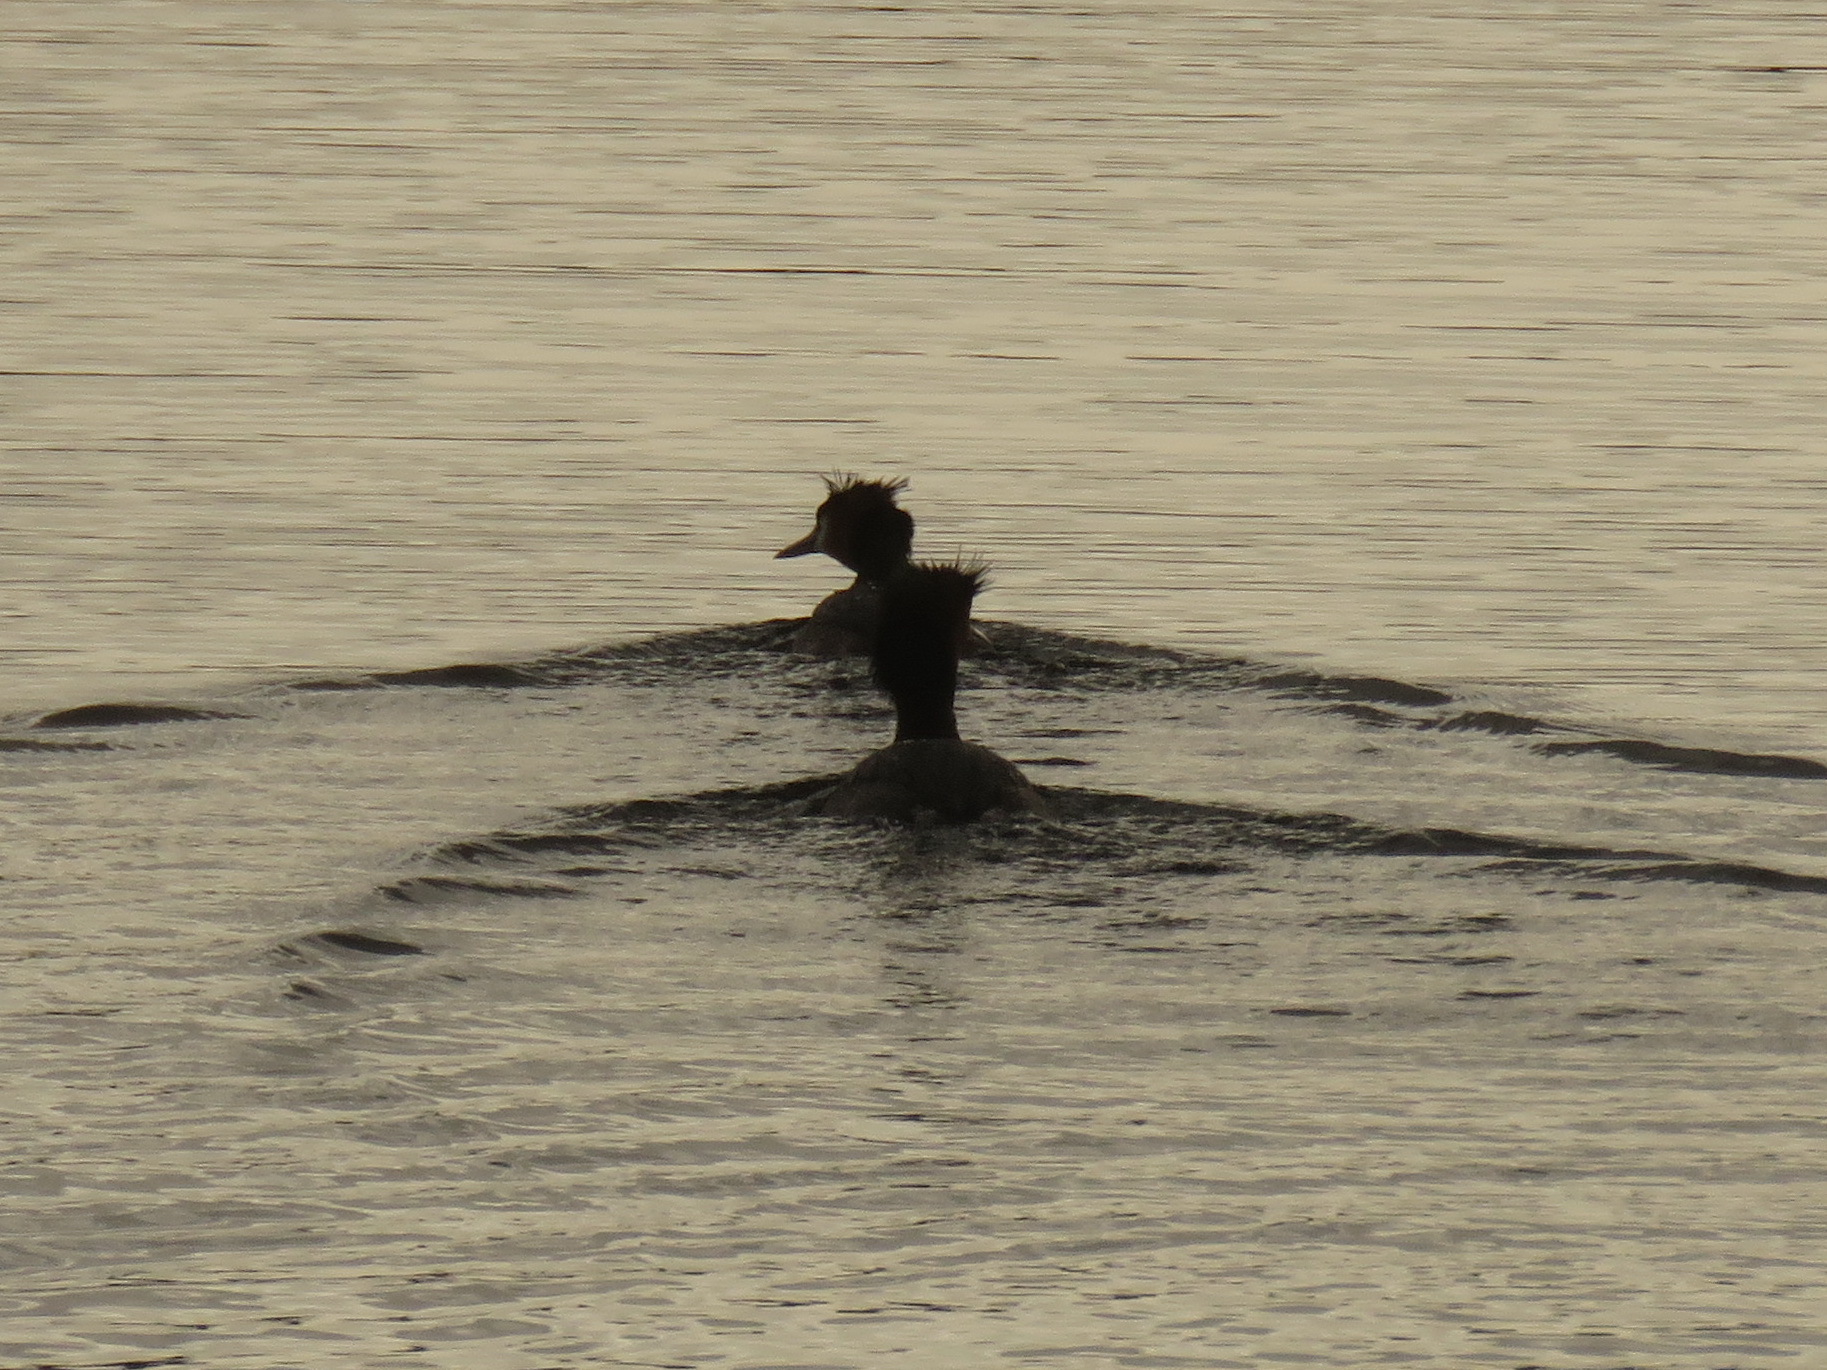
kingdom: Animalia
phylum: Chordata
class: Aves
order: Podicipediformes
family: Podicipedidae
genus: Podiceps
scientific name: Podiceps cristatus
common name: Great crested grebe
